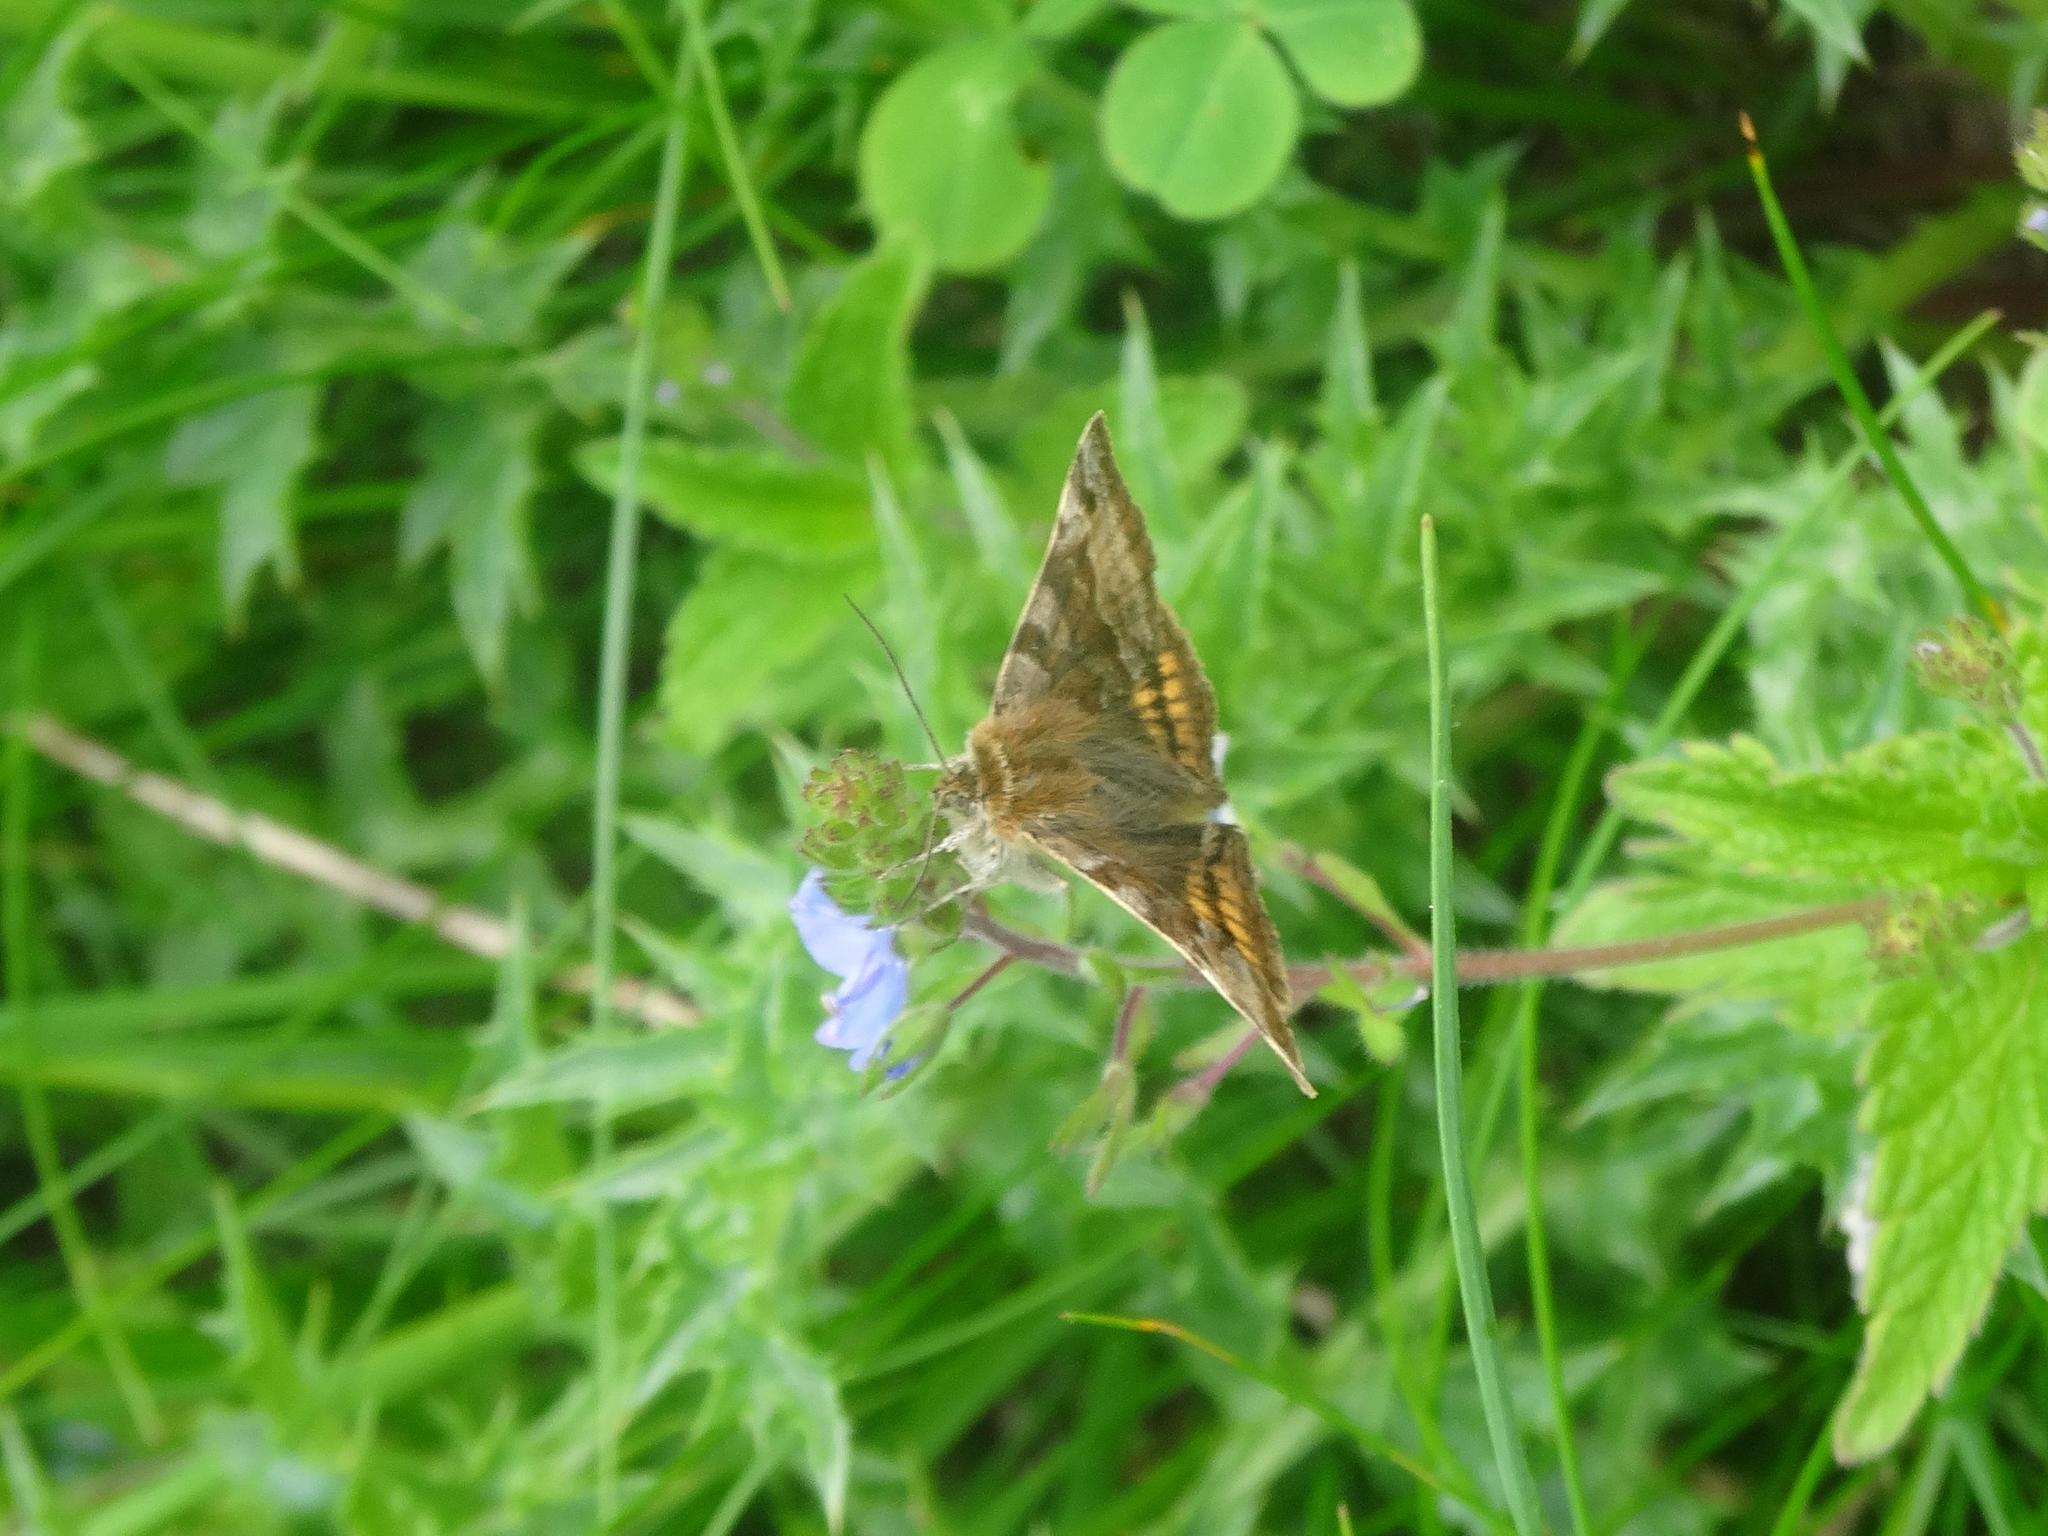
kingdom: Animalia
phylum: Arthropoda
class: Insecta
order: Lepidoptera
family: Erebidae
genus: Euclidia
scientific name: Euclidia glyphica
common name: Burnet companion
